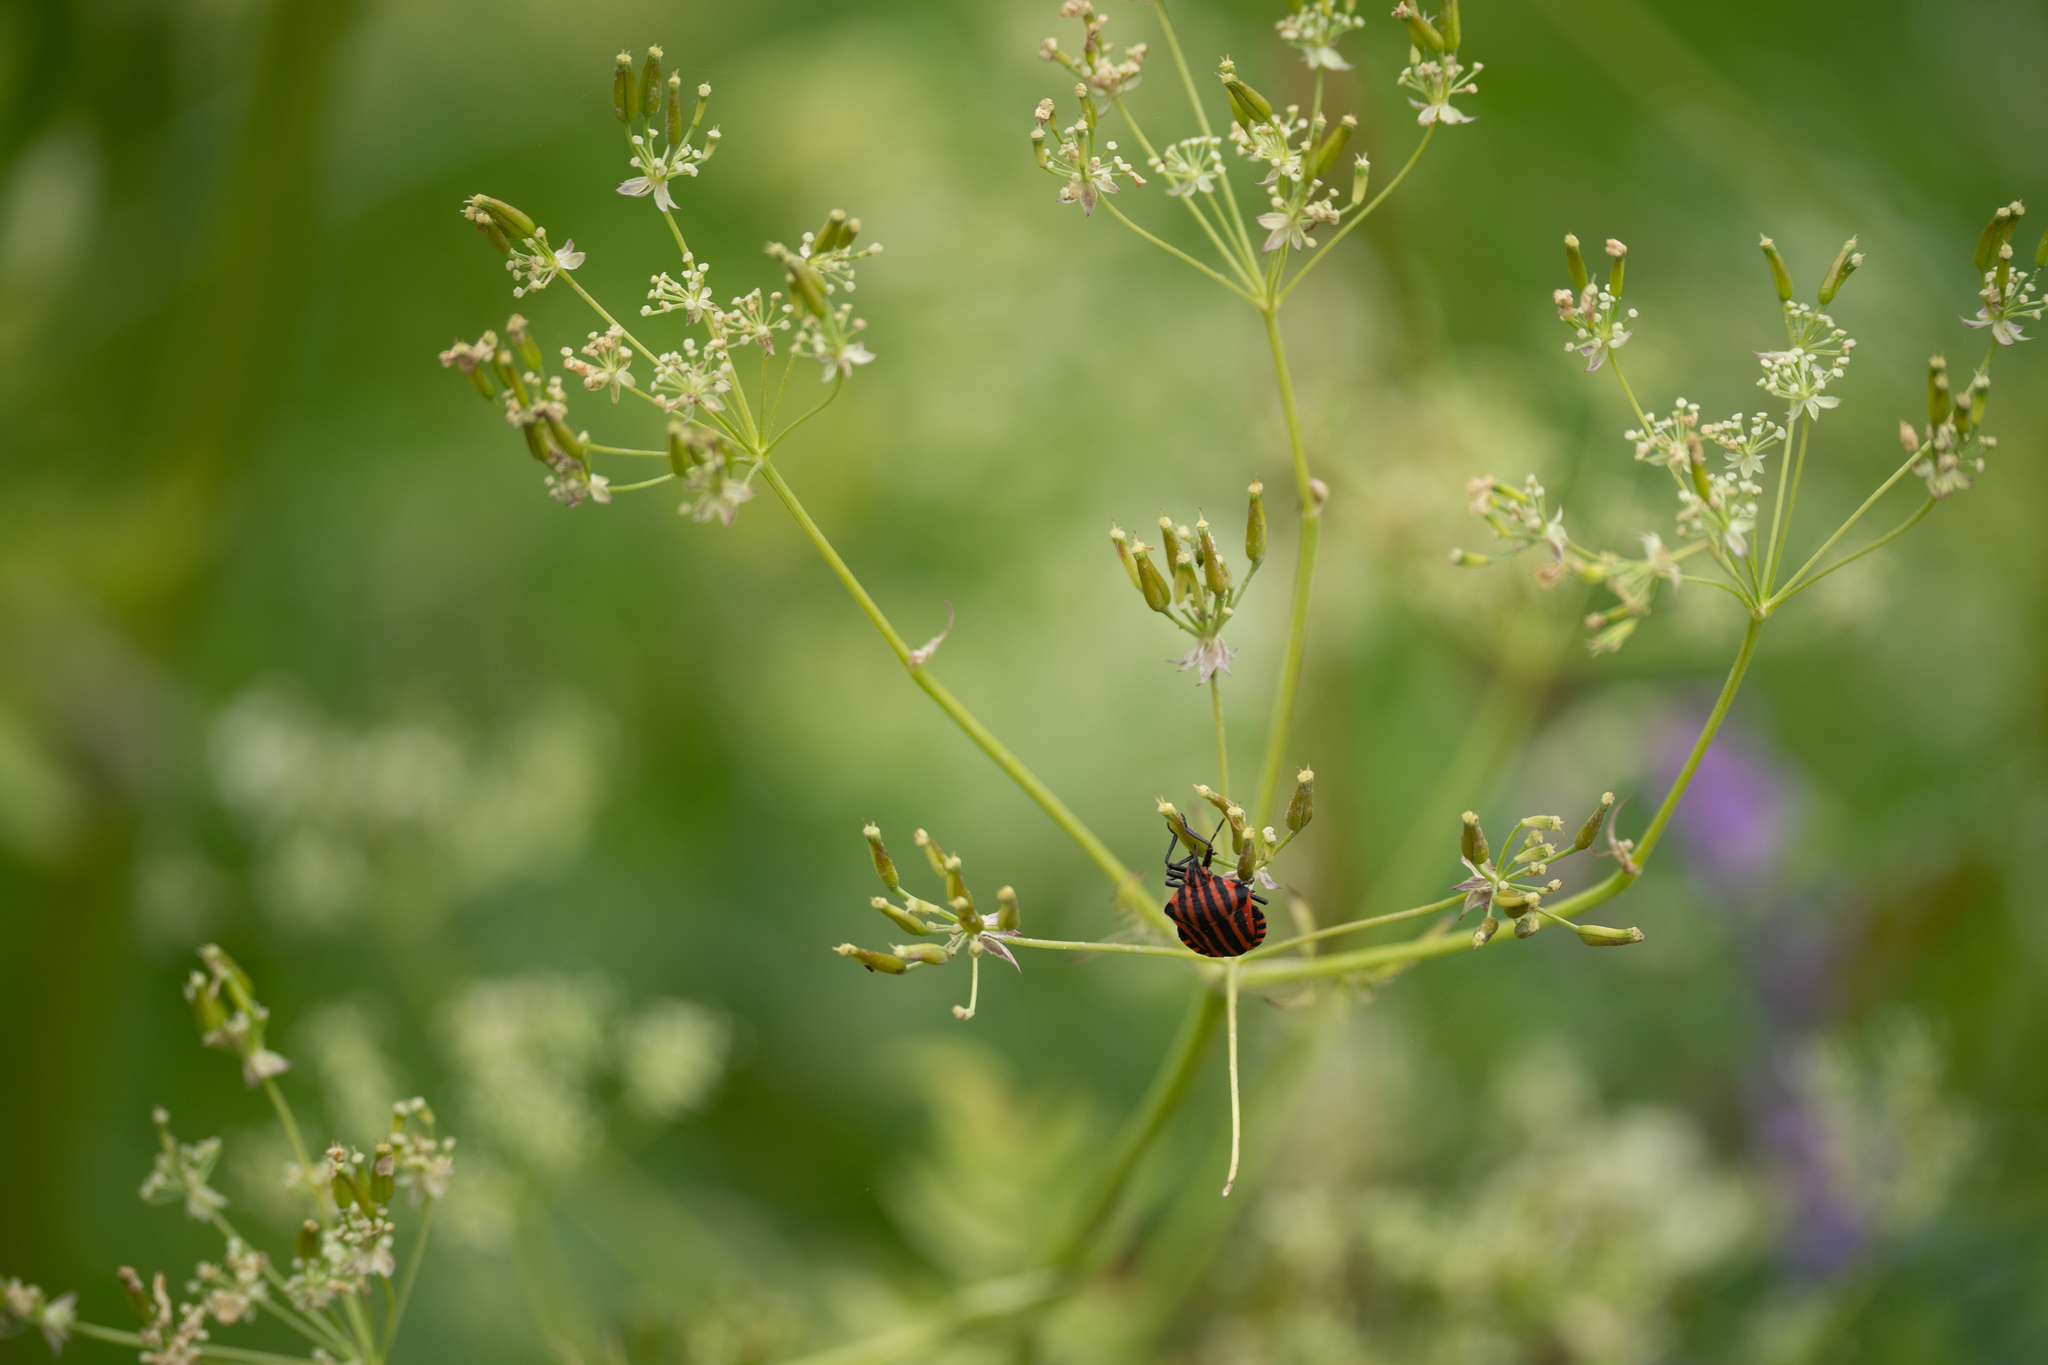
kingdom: Animalia
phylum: Arthropoda
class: Insecta
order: Hemiptera
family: Pentatomidae
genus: Graphosoma
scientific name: Graphosoma italicum
